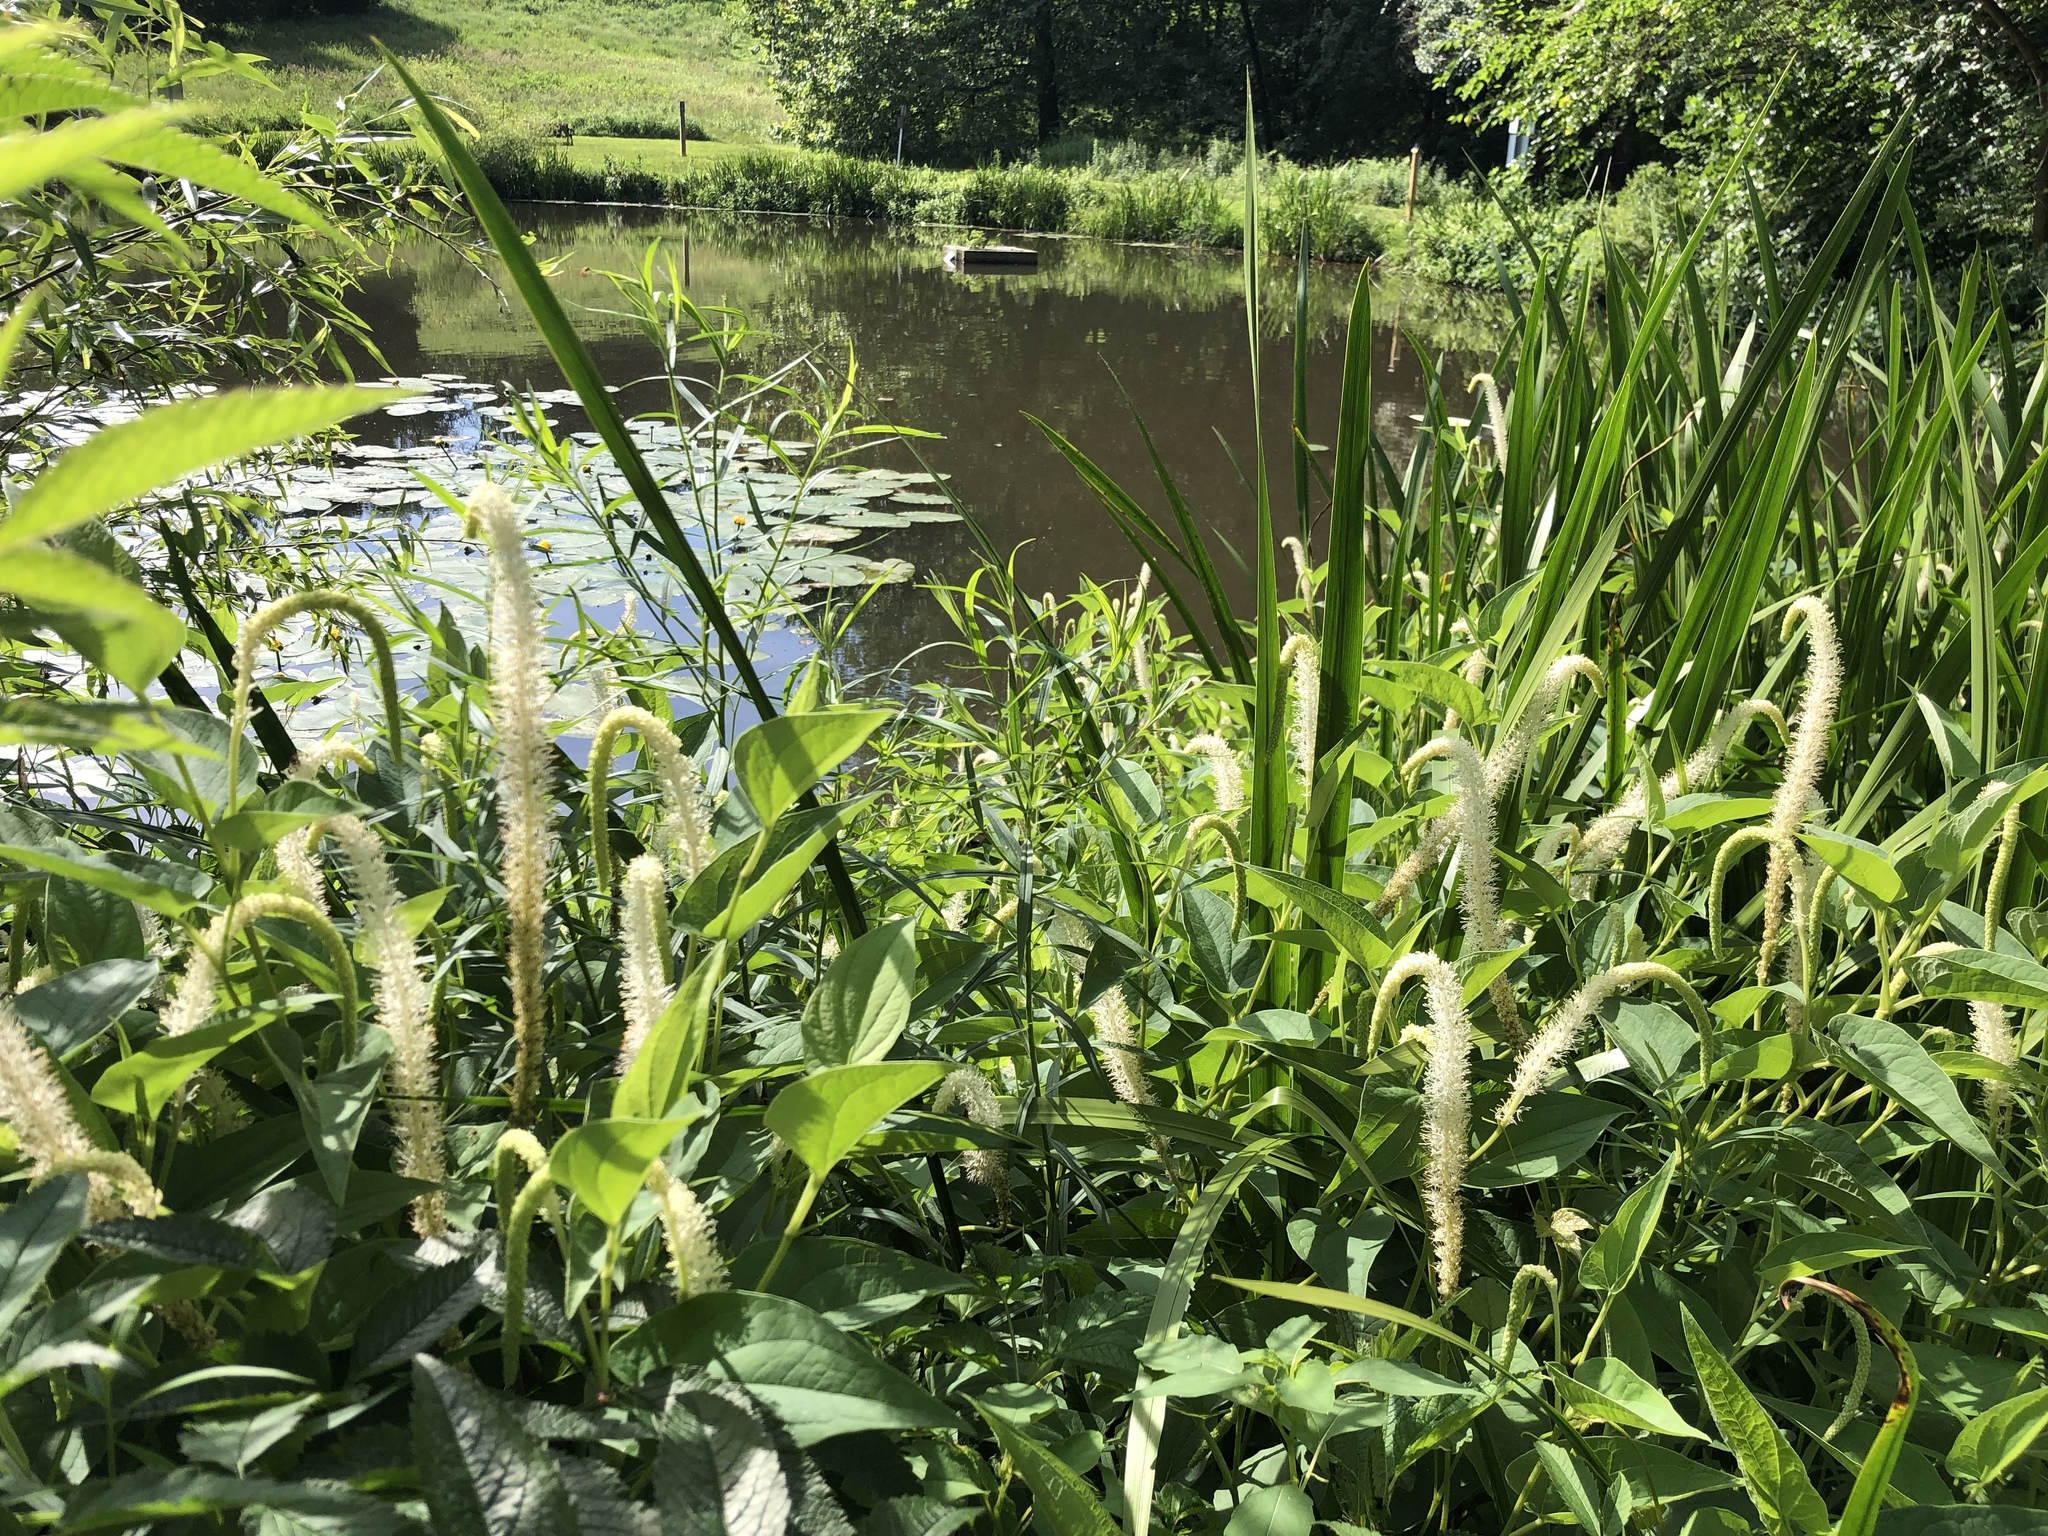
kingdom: Plantae
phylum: Tracheophyta
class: Magnoliopsida
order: Piperales
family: Saururaceae
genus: Saururus
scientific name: Saururus cernuus
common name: Lizard's-tail
